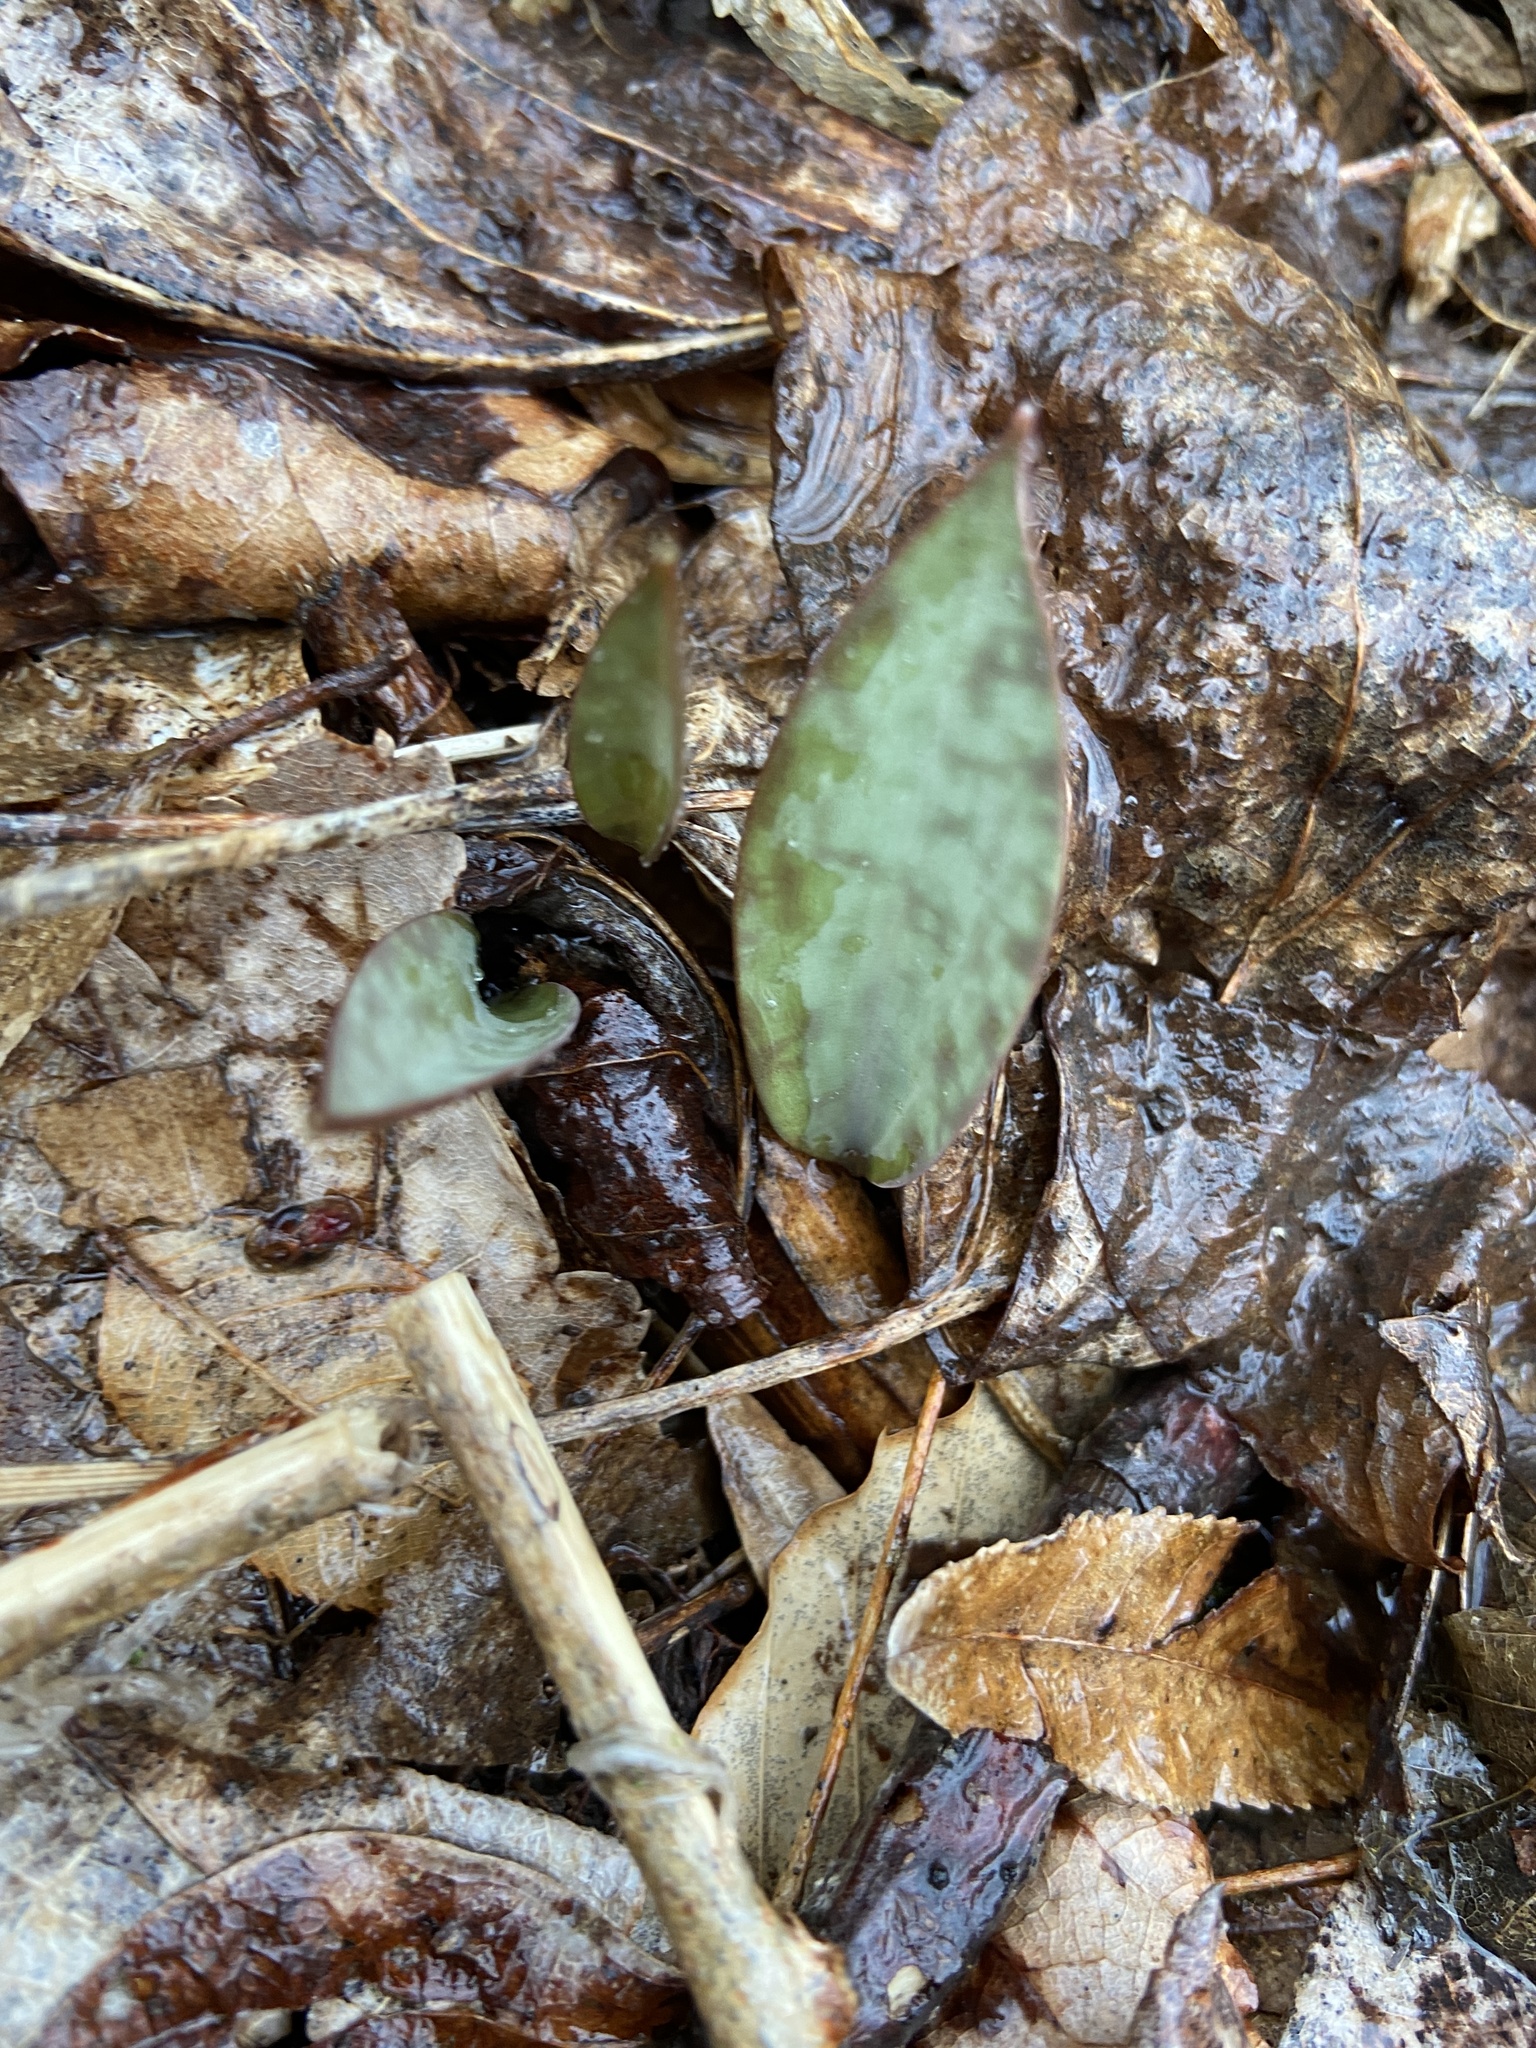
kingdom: Plantae
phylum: Tracheophyta
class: Liliopsida
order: Liliales
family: Liliaceae
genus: Erythronium
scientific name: Erythronium americanum
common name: Yellow adder's-tongue
